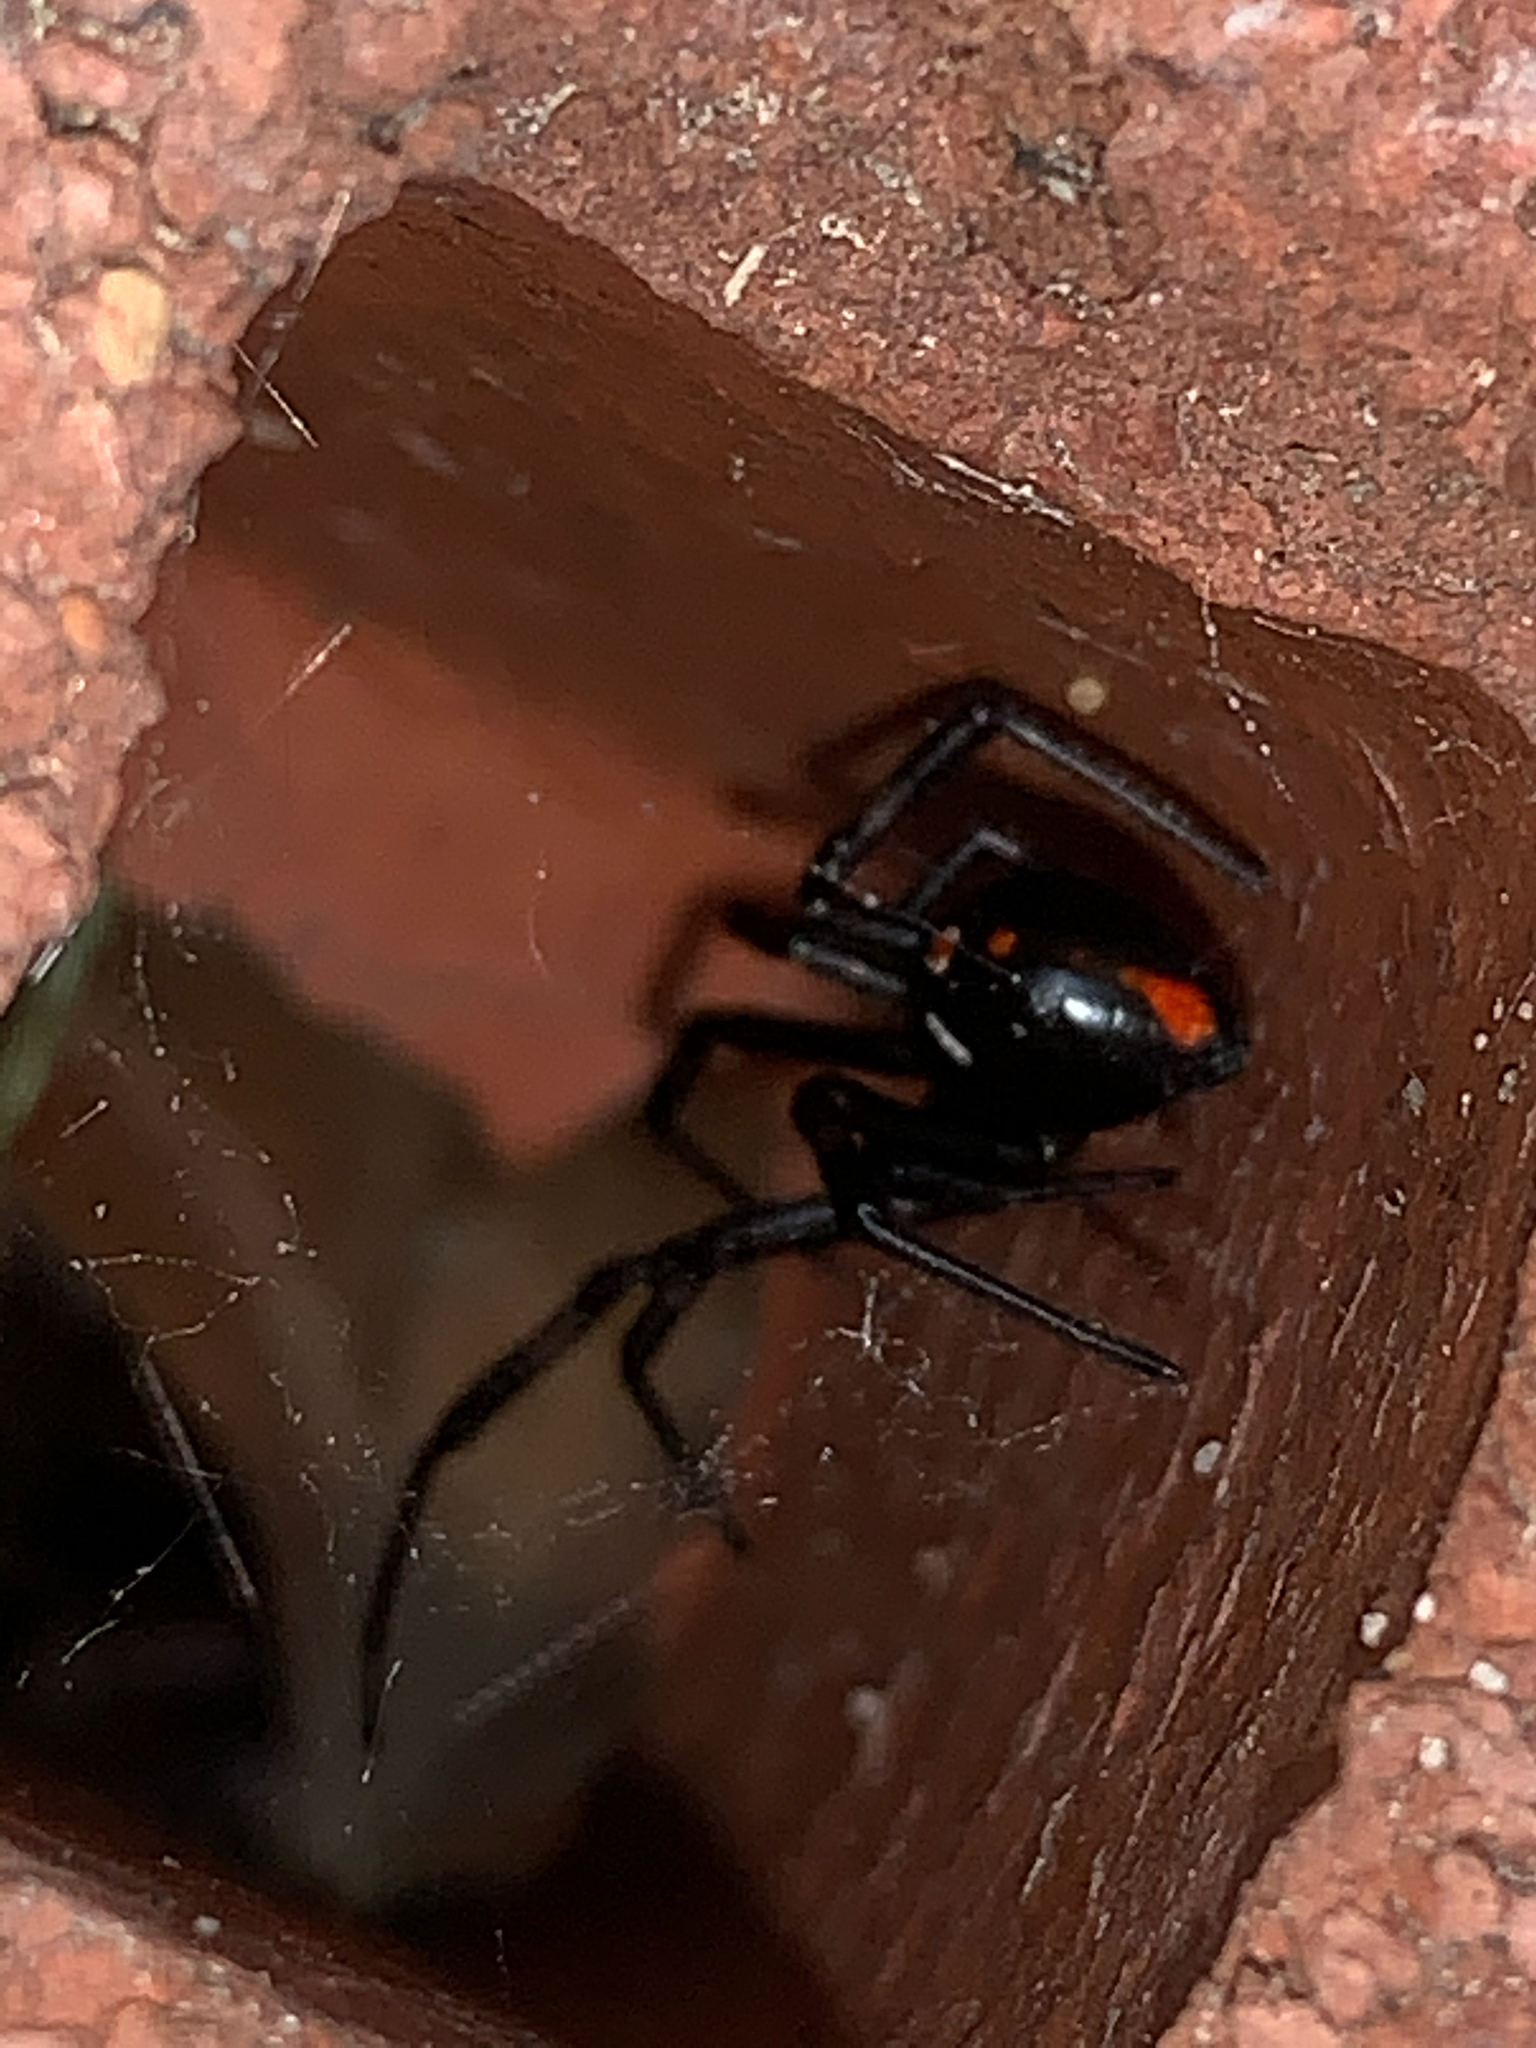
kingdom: Animalia
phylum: Arthropoda
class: Arachnida
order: Araneae
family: Theridiidae
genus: Latrodectus
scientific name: Latrodectus mactans
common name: Cobweb spiders
